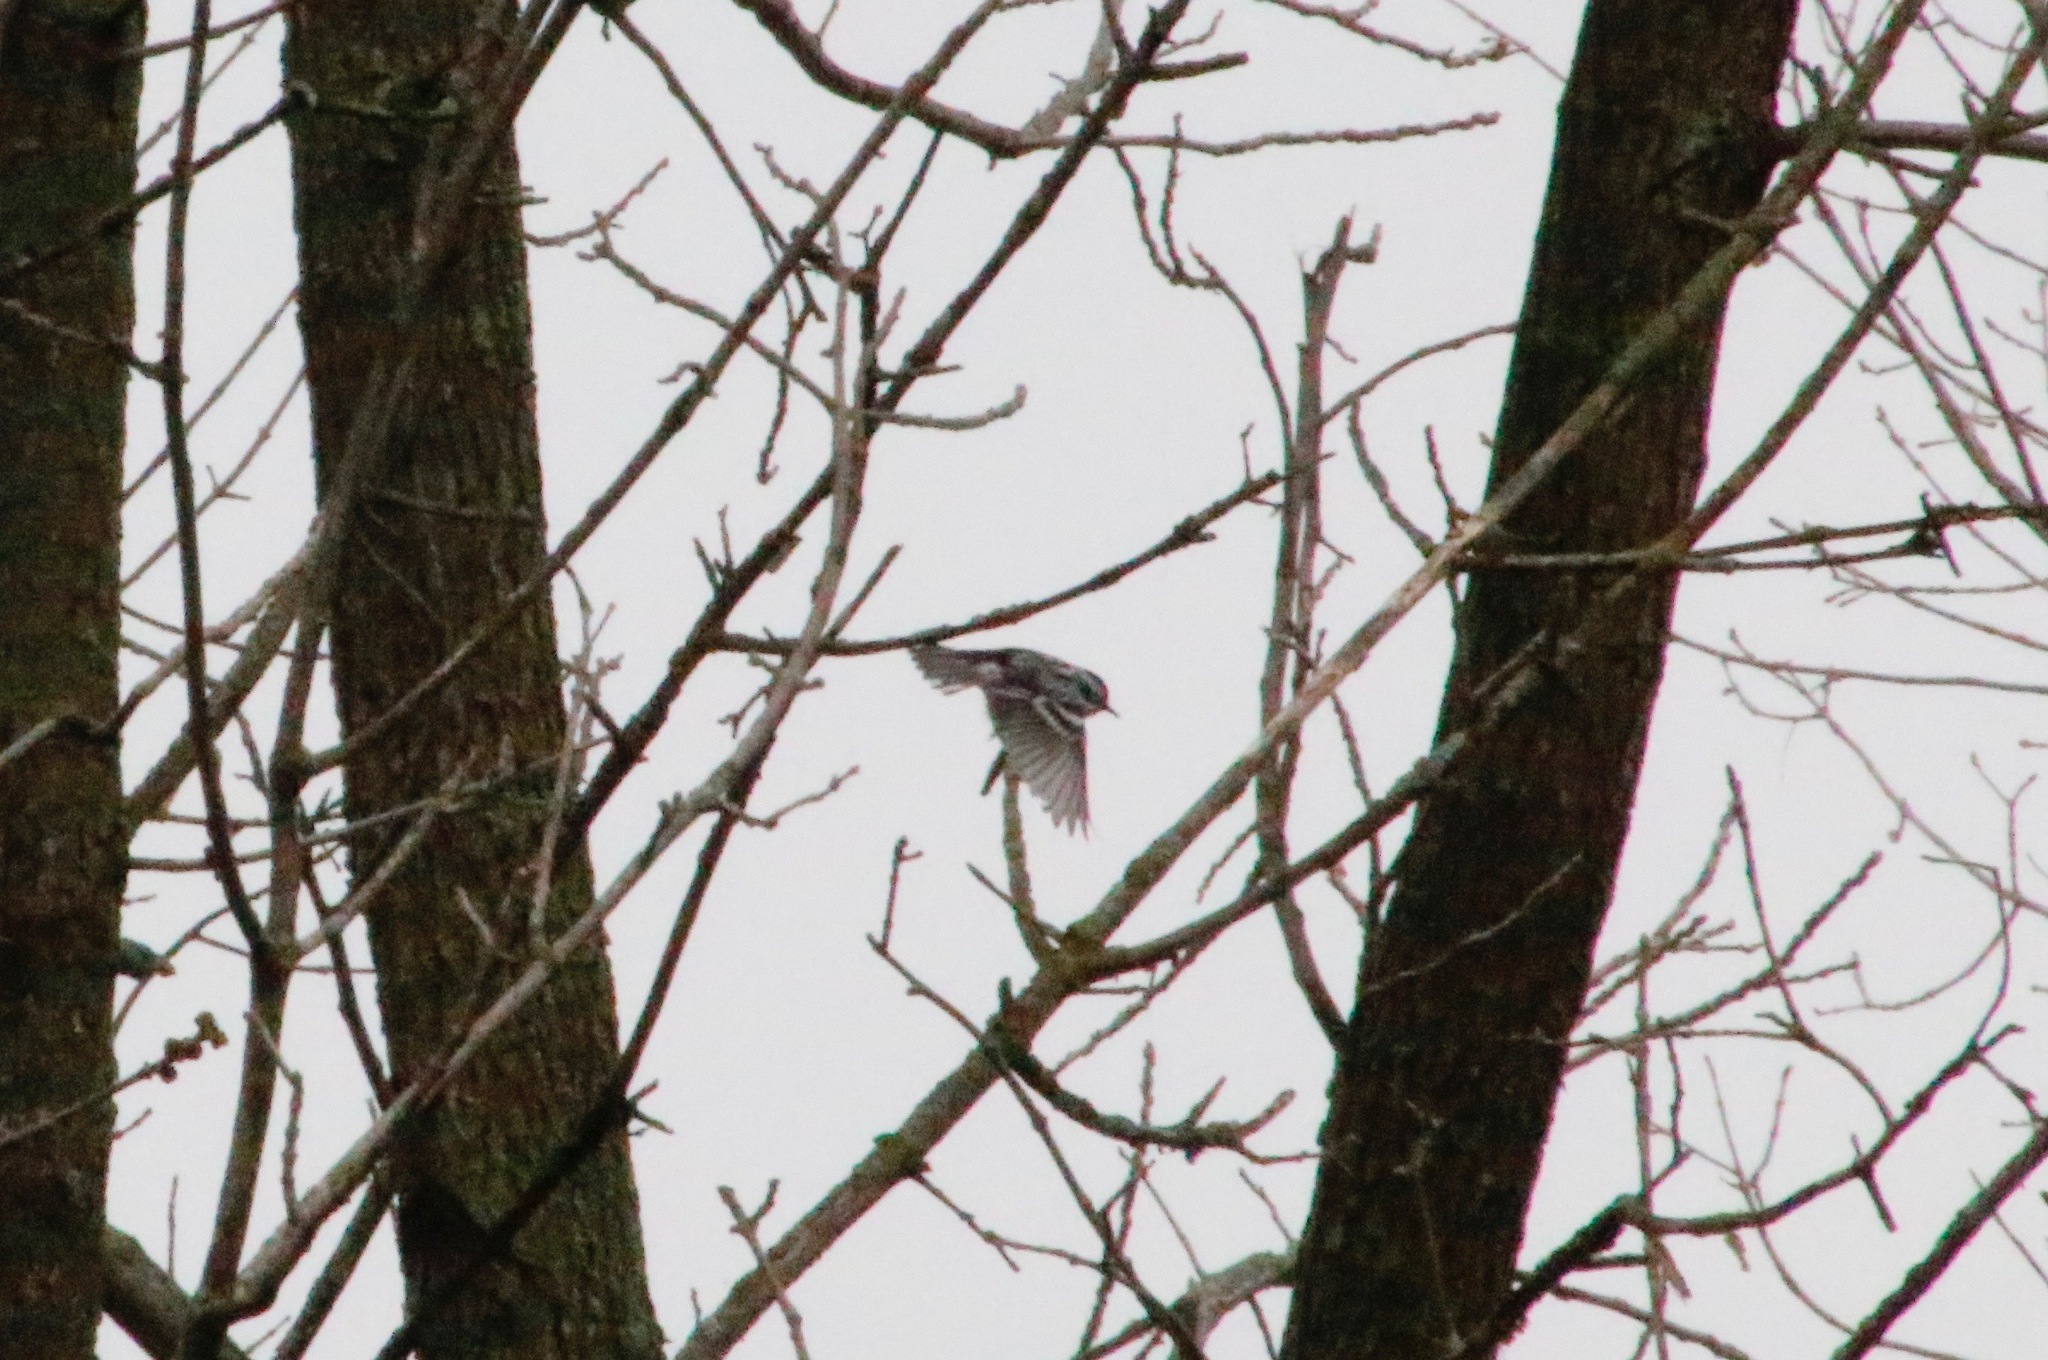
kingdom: Animalia
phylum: Chordata
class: Aves
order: Passeriformes
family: Parulidae
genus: Mniotilta
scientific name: Mniotilta varia
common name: Black-and-white warbler
